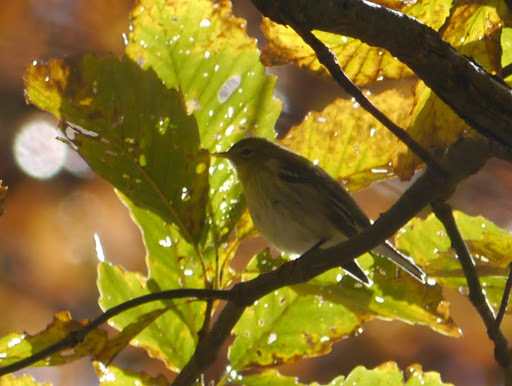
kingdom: Animalia
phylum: Chordata
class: Aves
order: Passeriformes
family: Parulidae
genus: Setophaga
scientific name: Setophaga pinus
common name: Pine warbler
